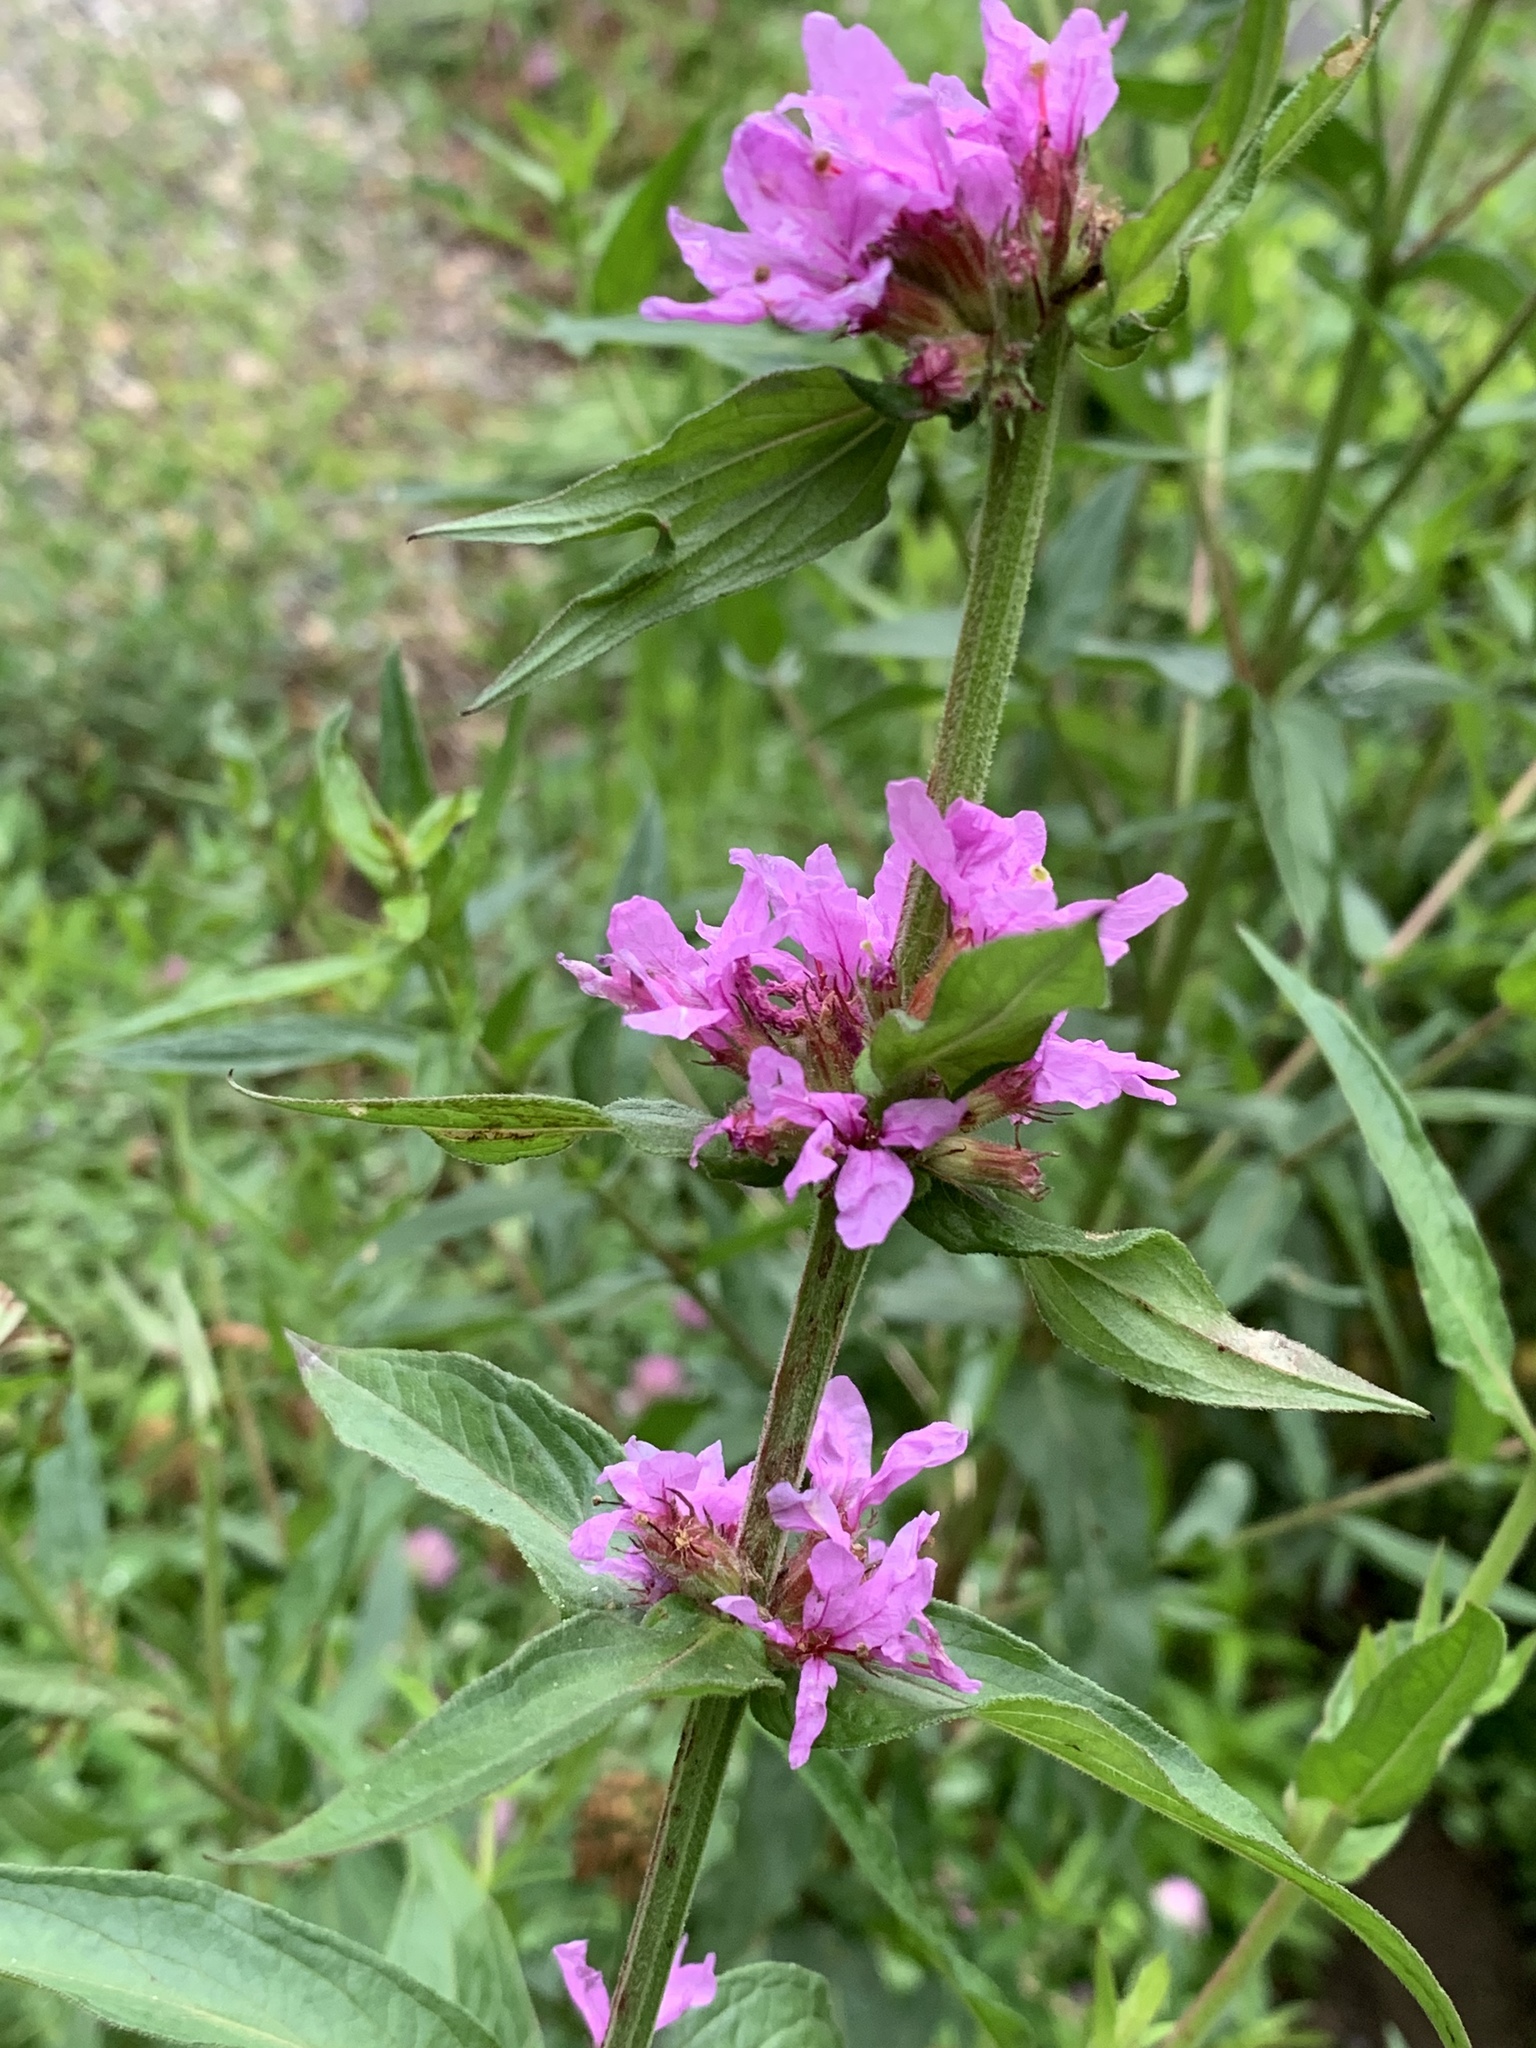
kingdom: Plantae
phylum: Tracheophyta
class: Magnoliopsida
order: Myrtales
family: Lythraceae
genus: Lythrum
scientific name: Lythrum salicaria
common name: Purple loosestrife
